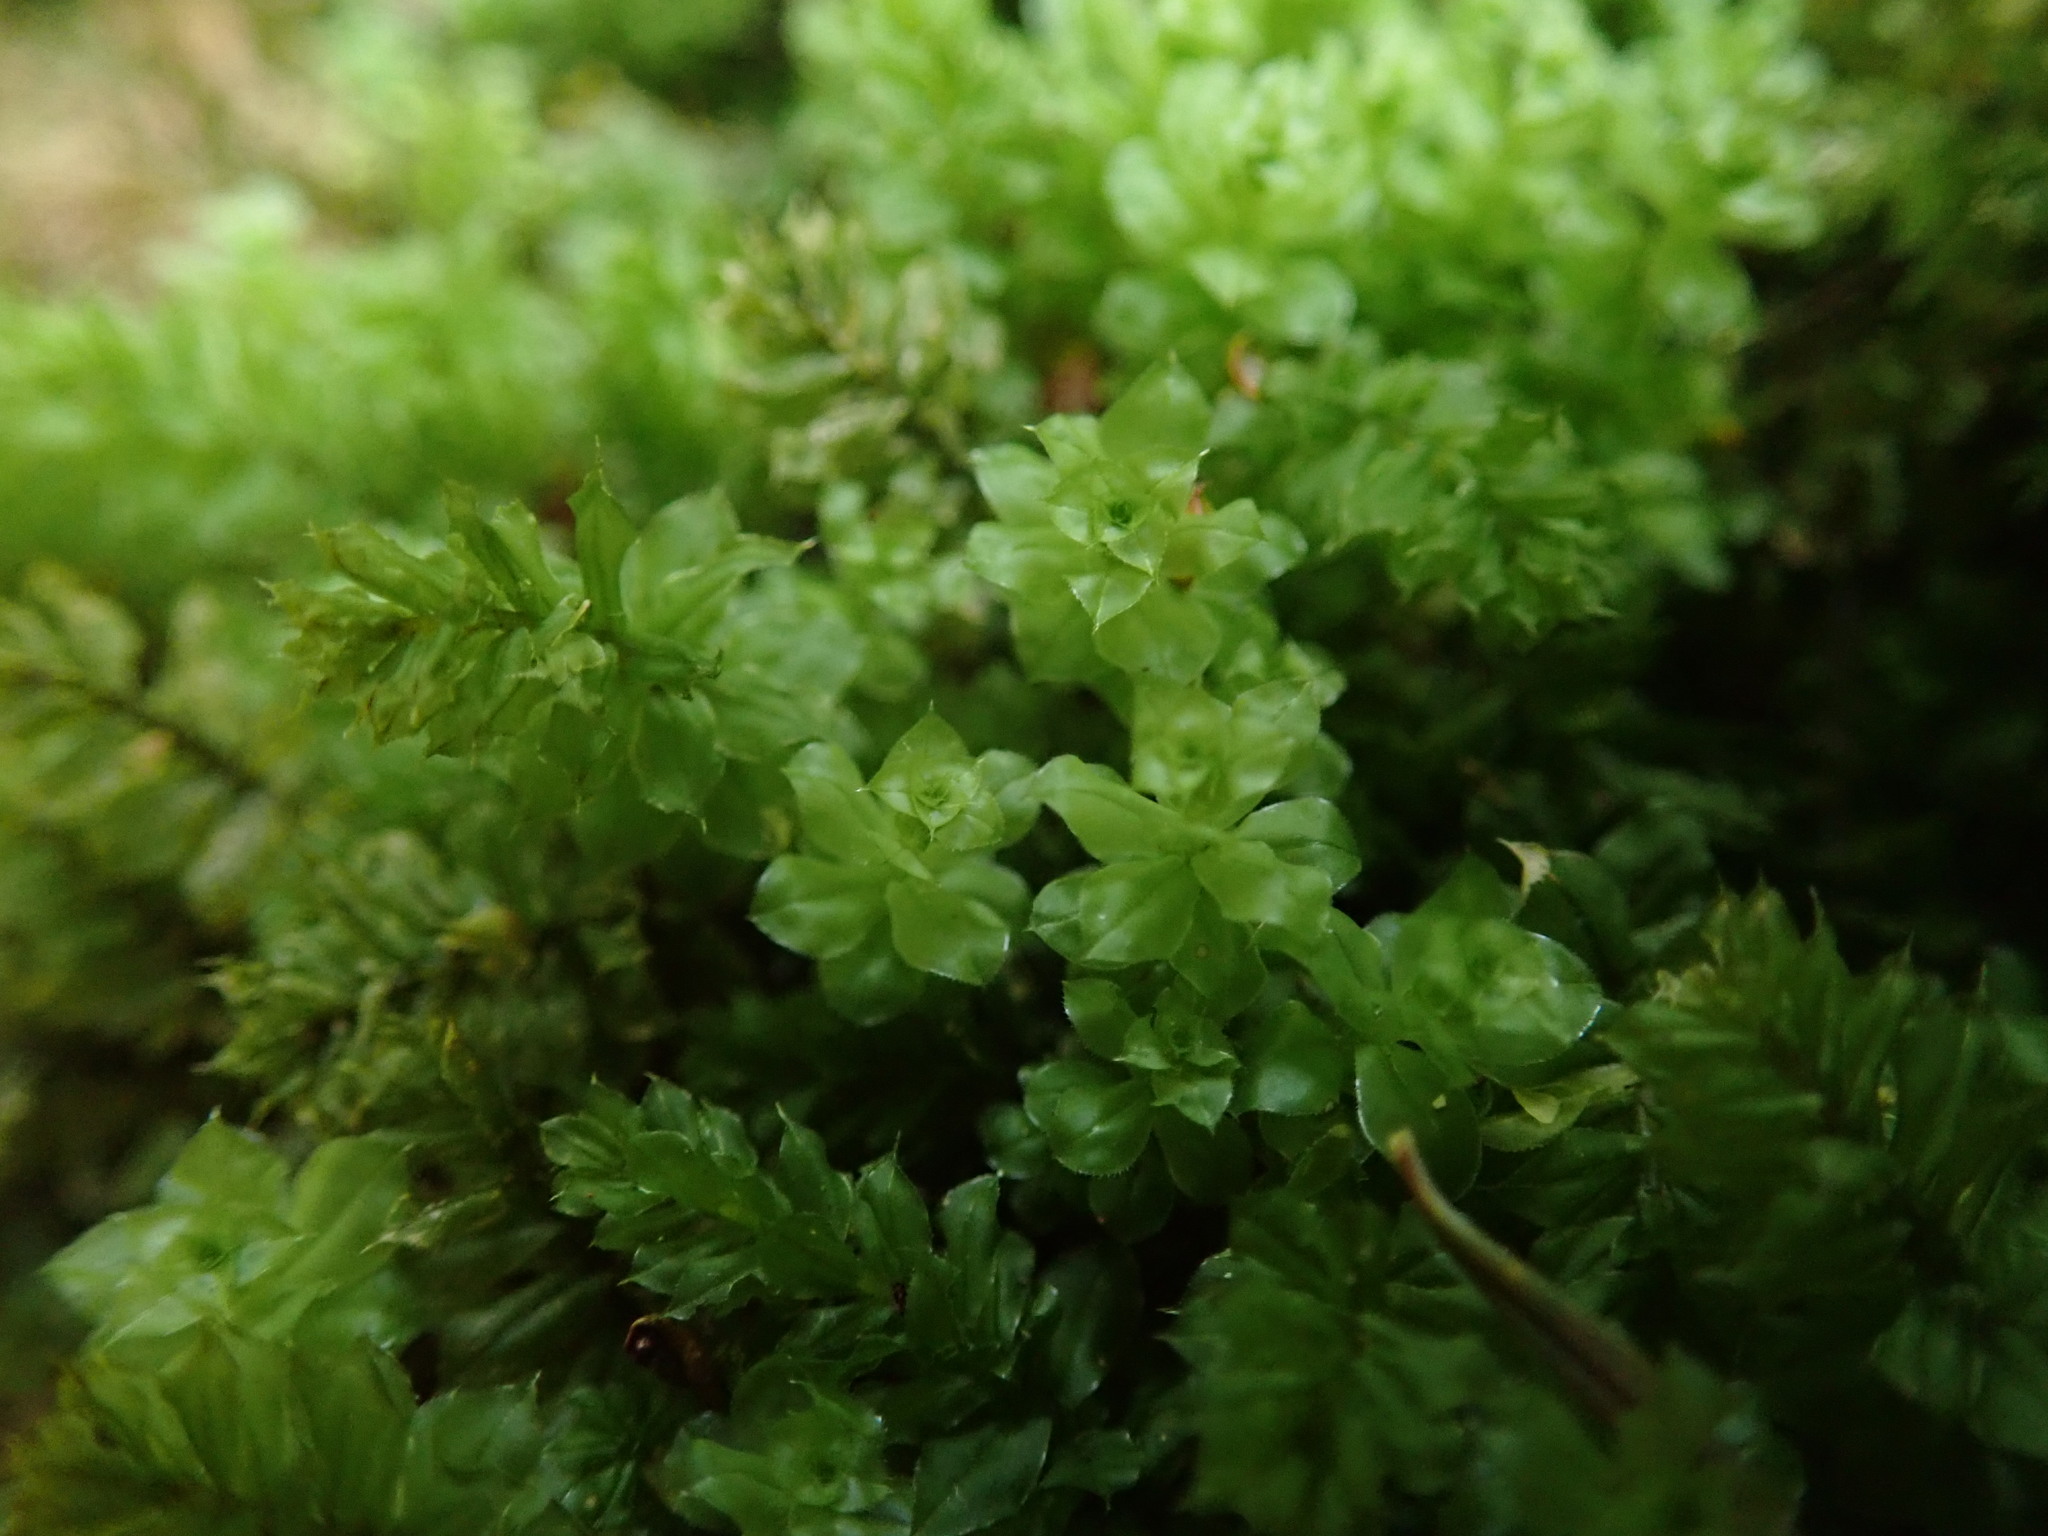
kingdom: Plantae
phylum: Bryophyta
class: Bryopsida
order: Bryales
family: Mniaceae
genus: Plagiomnium
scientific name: Plagiomnium venustum
